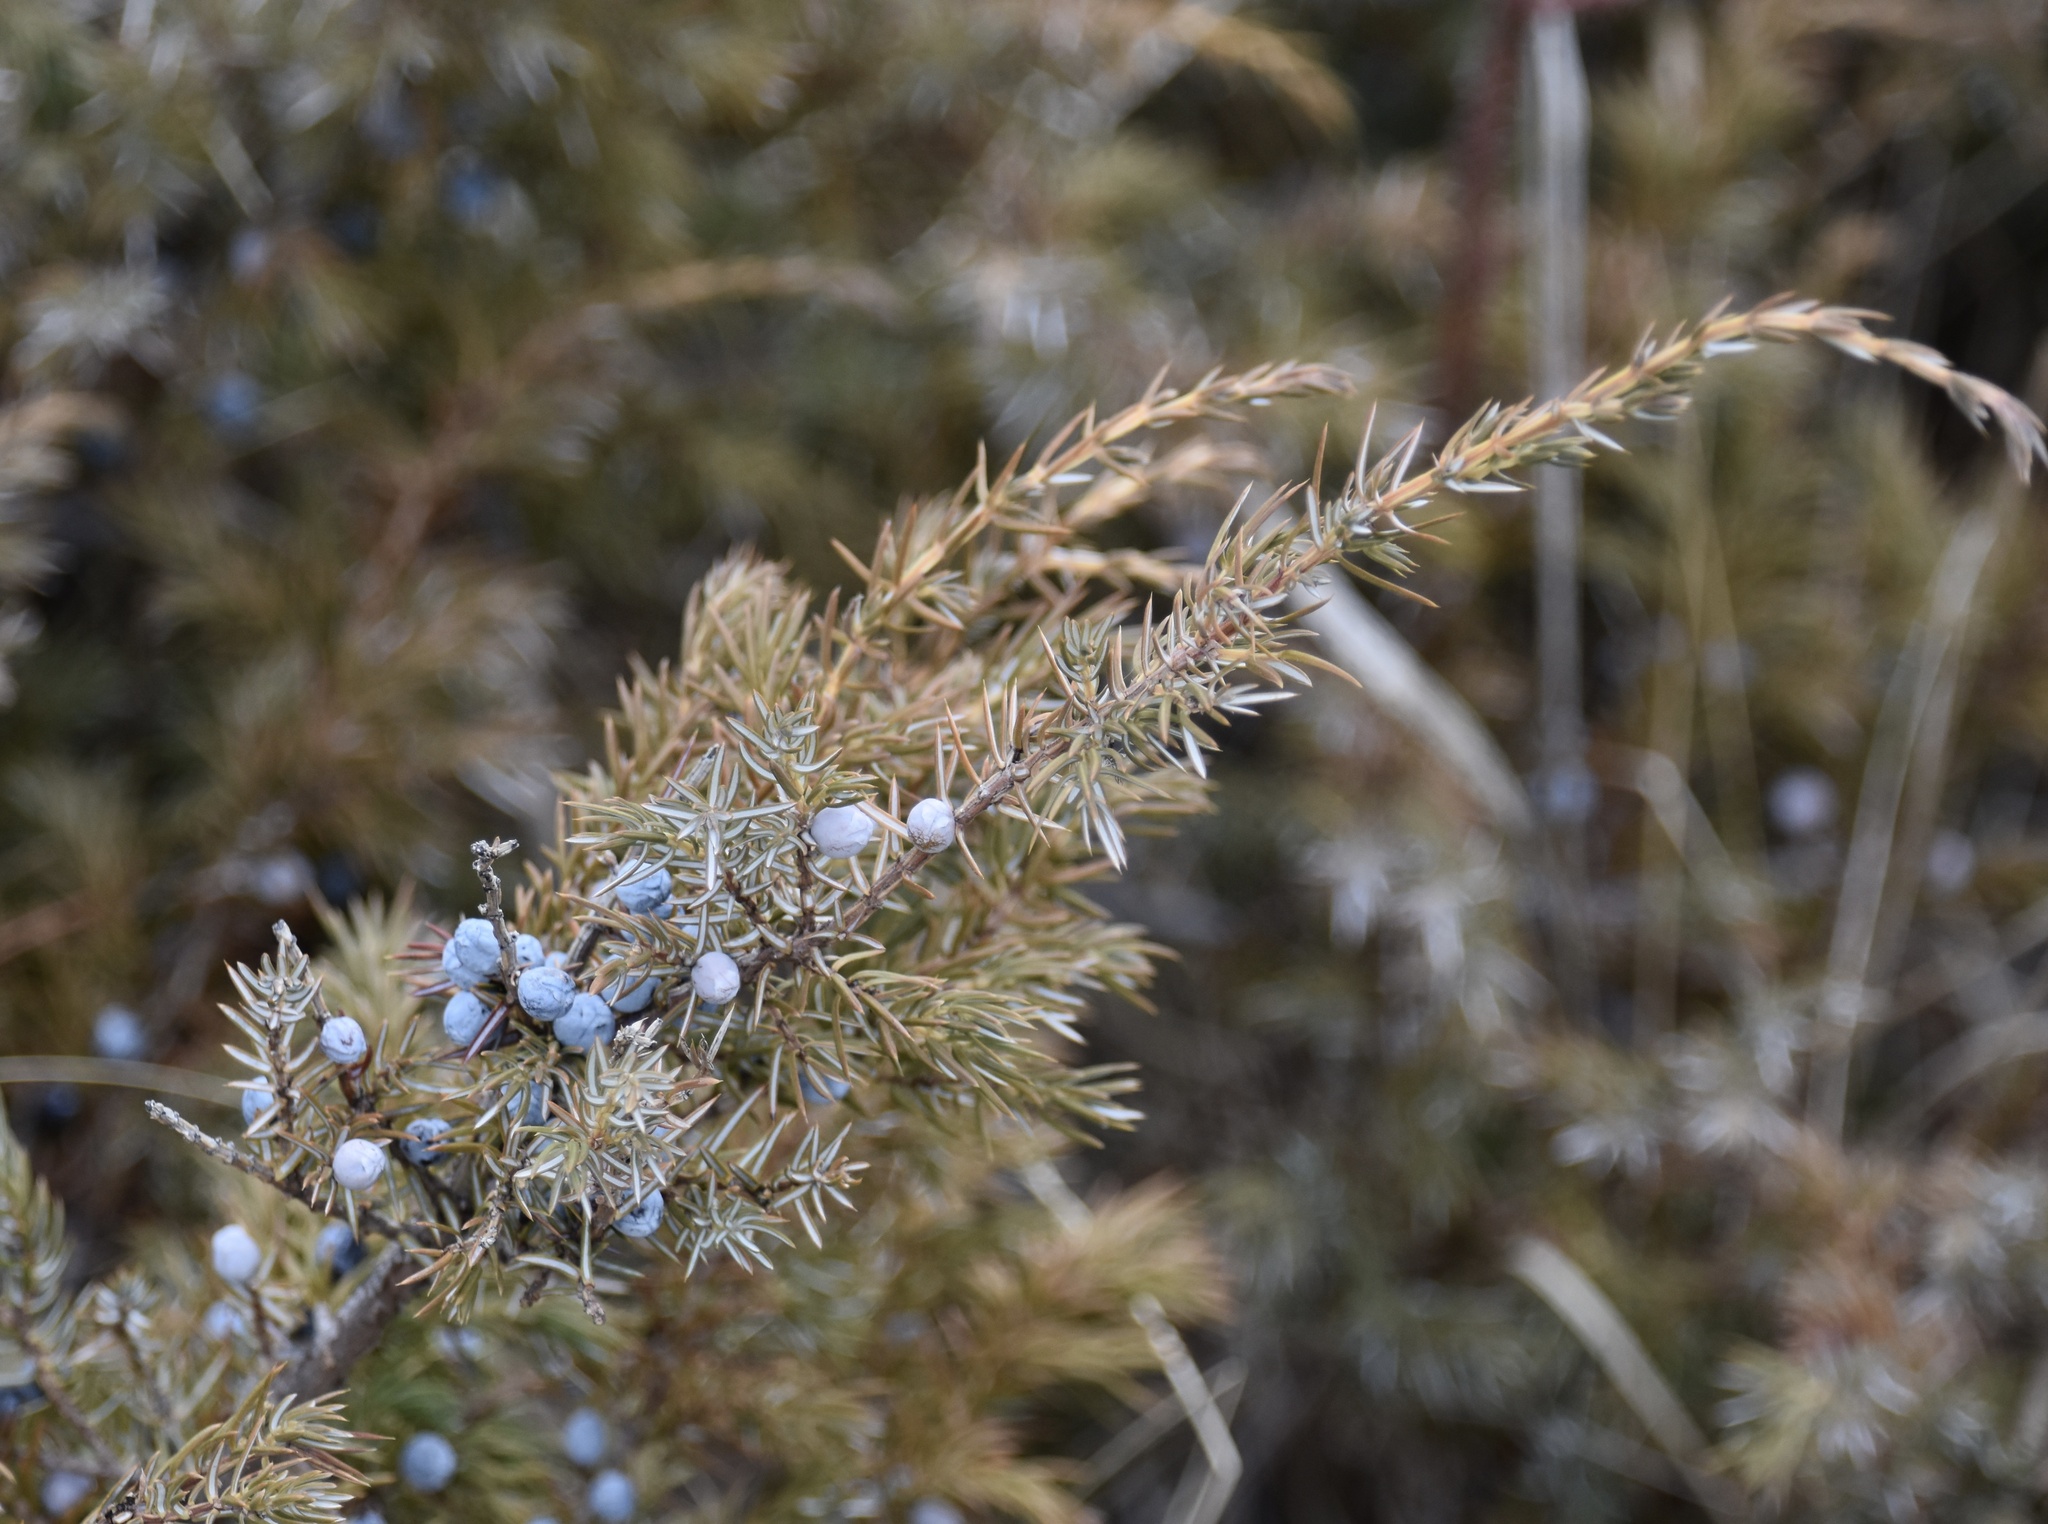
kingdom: Plantae
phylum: Tracheophyta
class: Pinopsida
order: Pinales
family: Cupressaceae
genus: Juniperus
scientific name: Juniperus communis
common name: Common juniper
